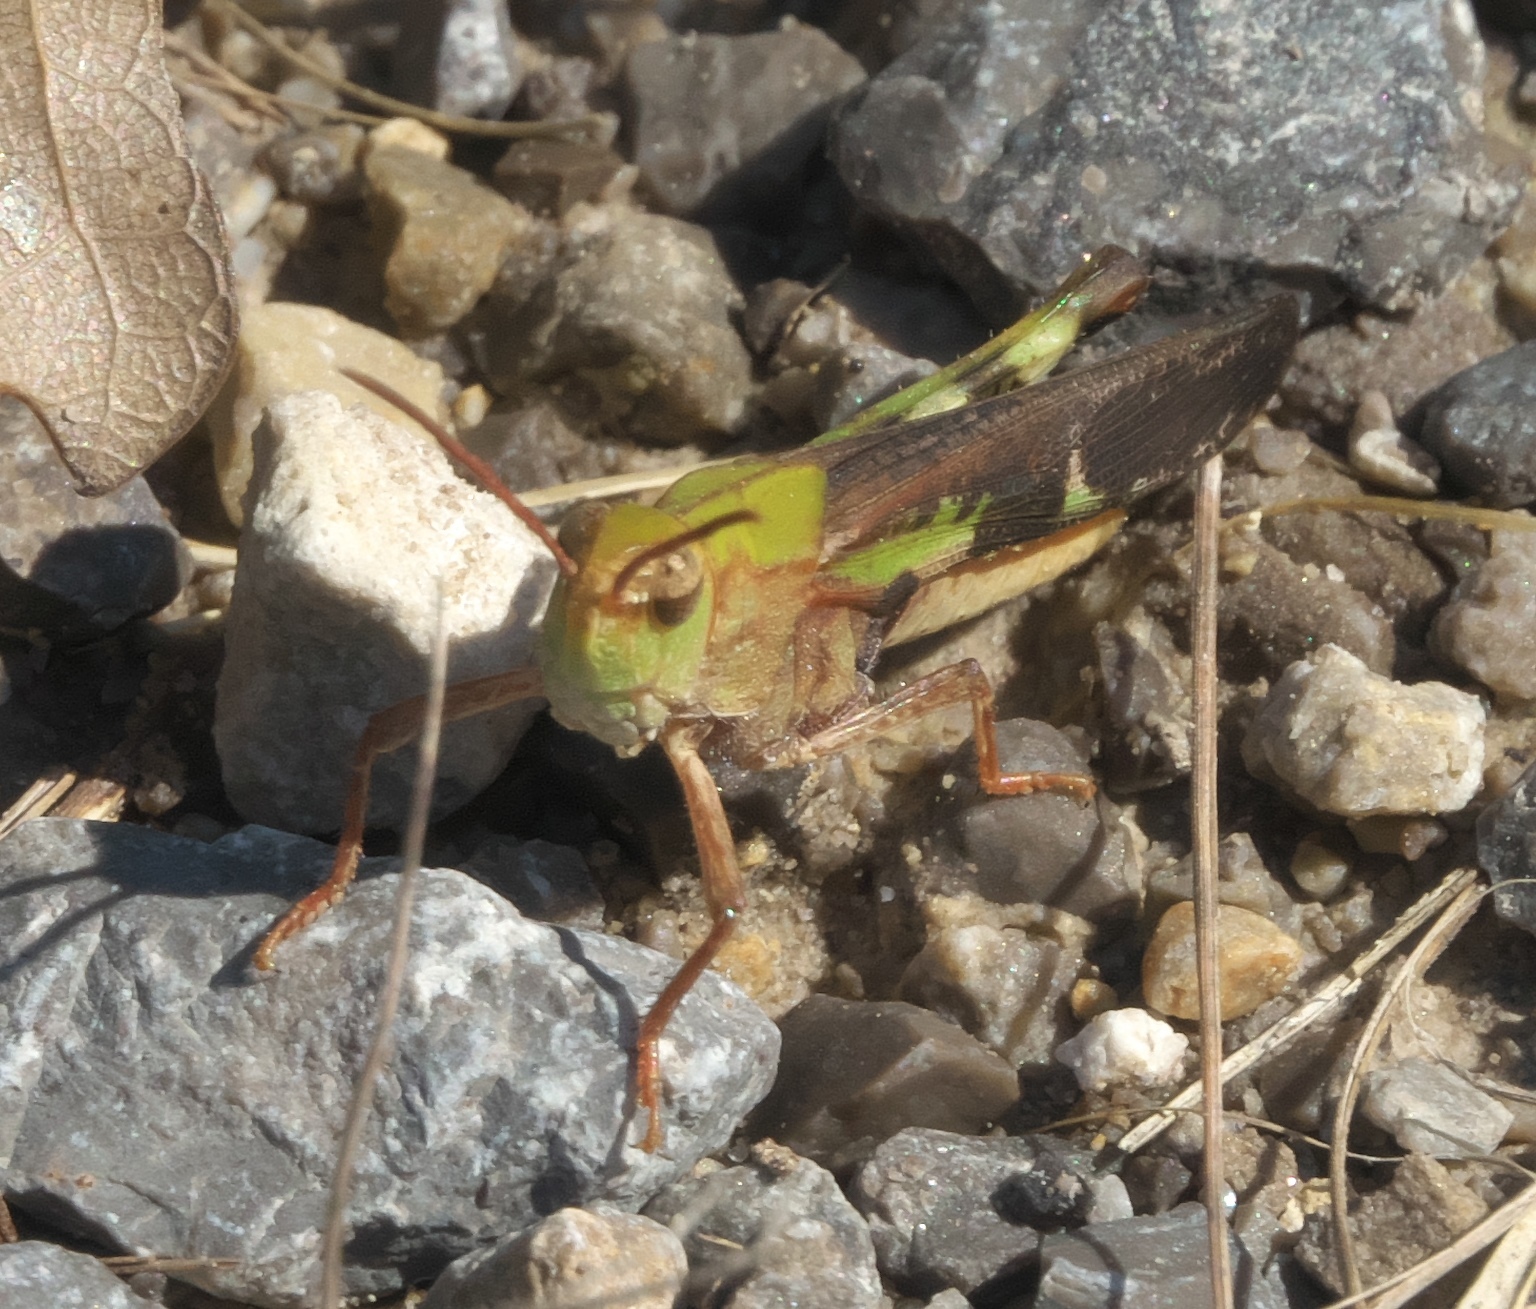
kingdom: Animalia
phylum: Arthropoda
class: Insecta
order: Orthoptera
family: Acrididae
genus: Chortophaga
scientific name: Chortophaga viridifasciata
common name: Green-striped grasshopper
